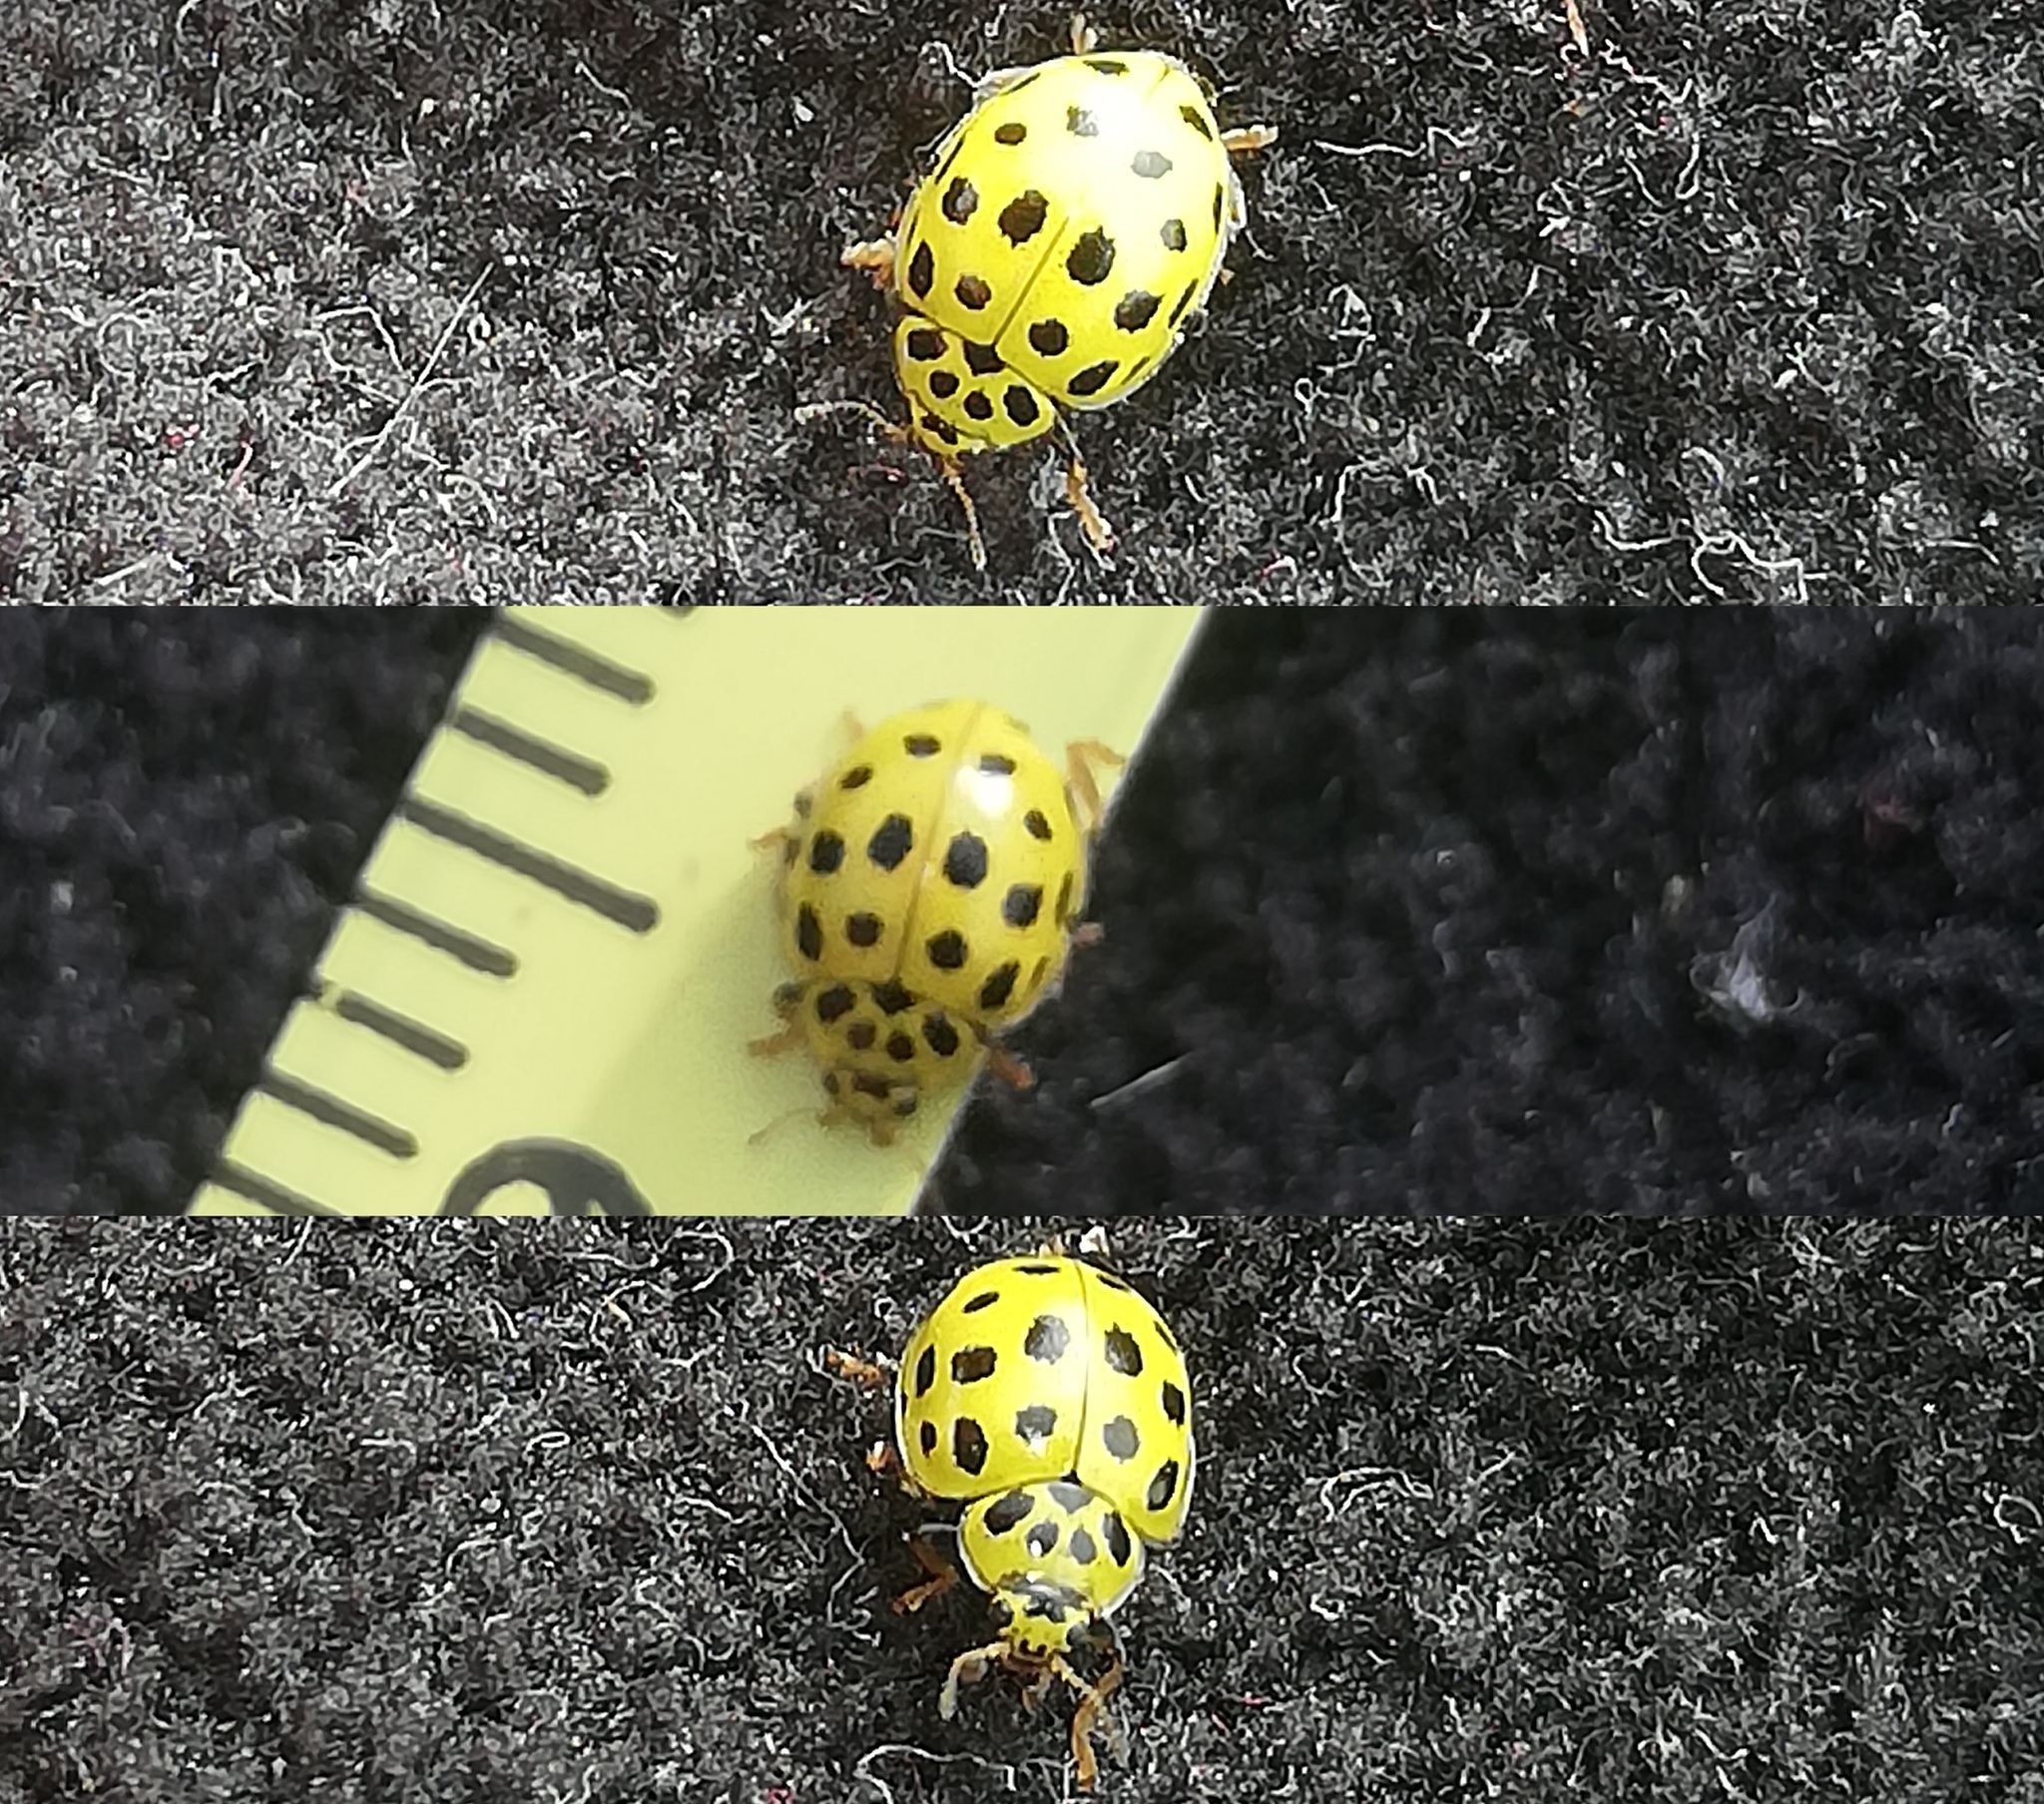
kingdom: Animalia
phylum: Arthropoda
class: Insecta
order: Coleoptera
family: Coccinellidae
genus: Psyllobora
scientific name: Psyllobora vigintiduopunctata
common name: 22-spot ladybird
